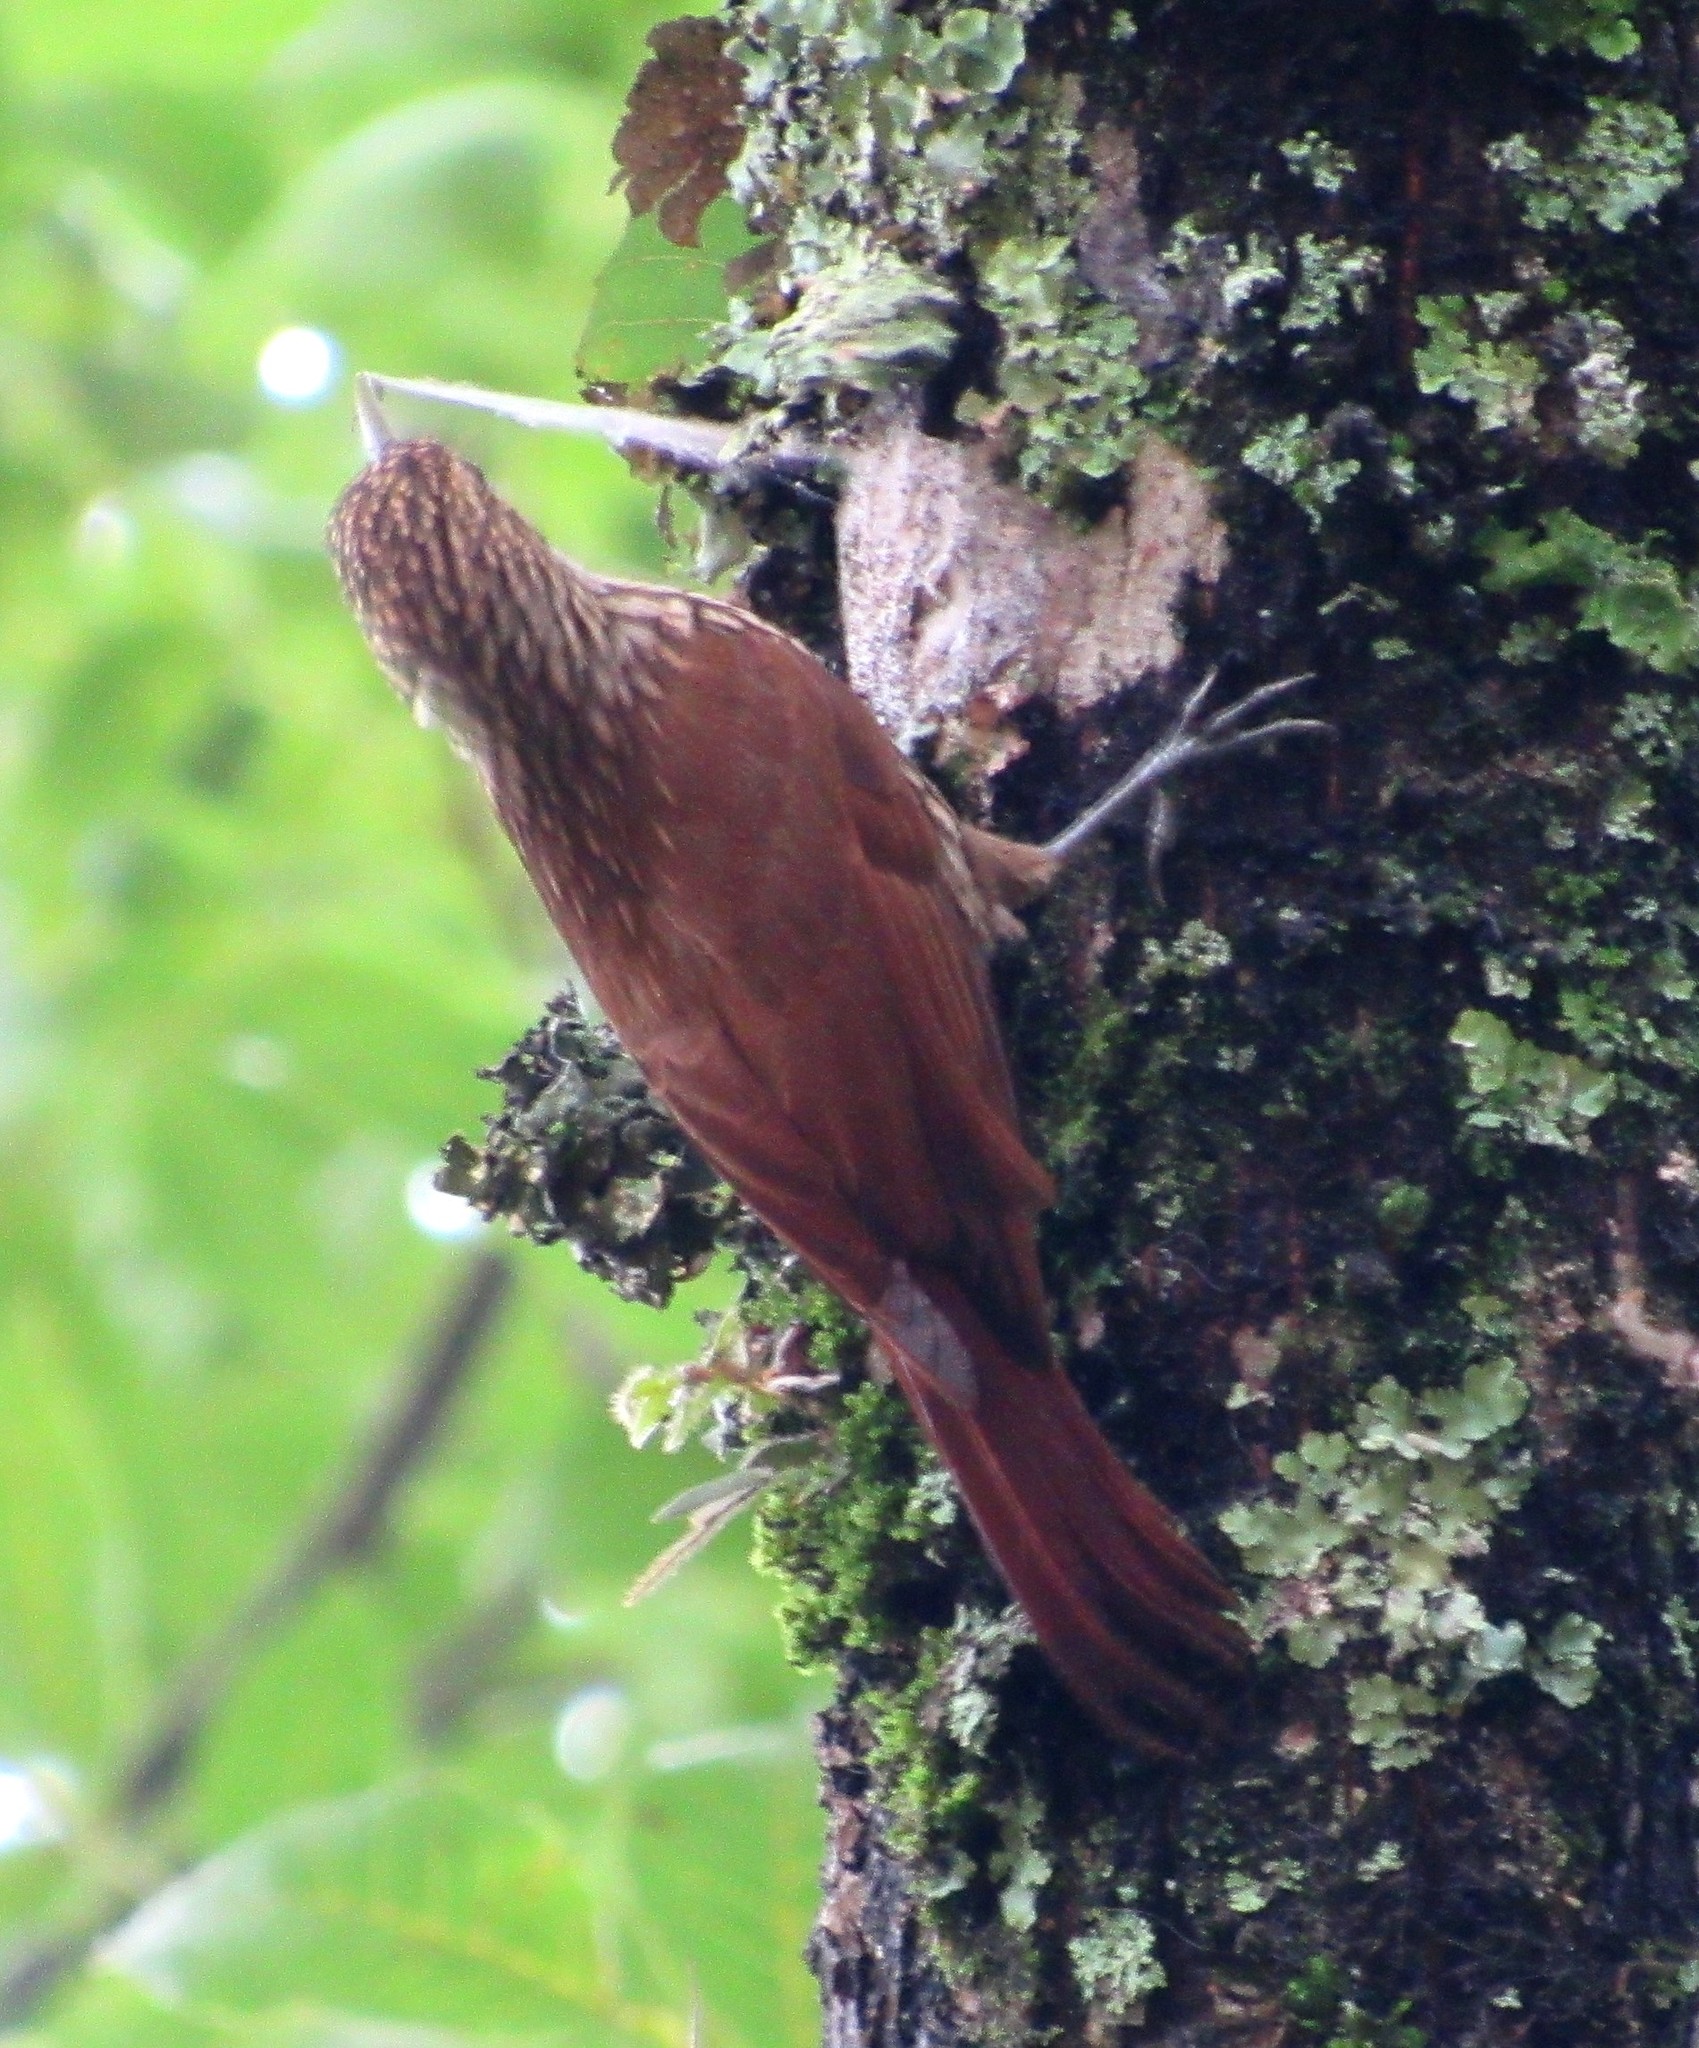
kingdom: Animalia
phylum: Chordata
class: Aves
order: Passeriformes
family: Furnariidae
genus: Lepidocolaptes
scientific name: Lepidocolaptes falcinellus
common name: Scalloped woodcreeper
